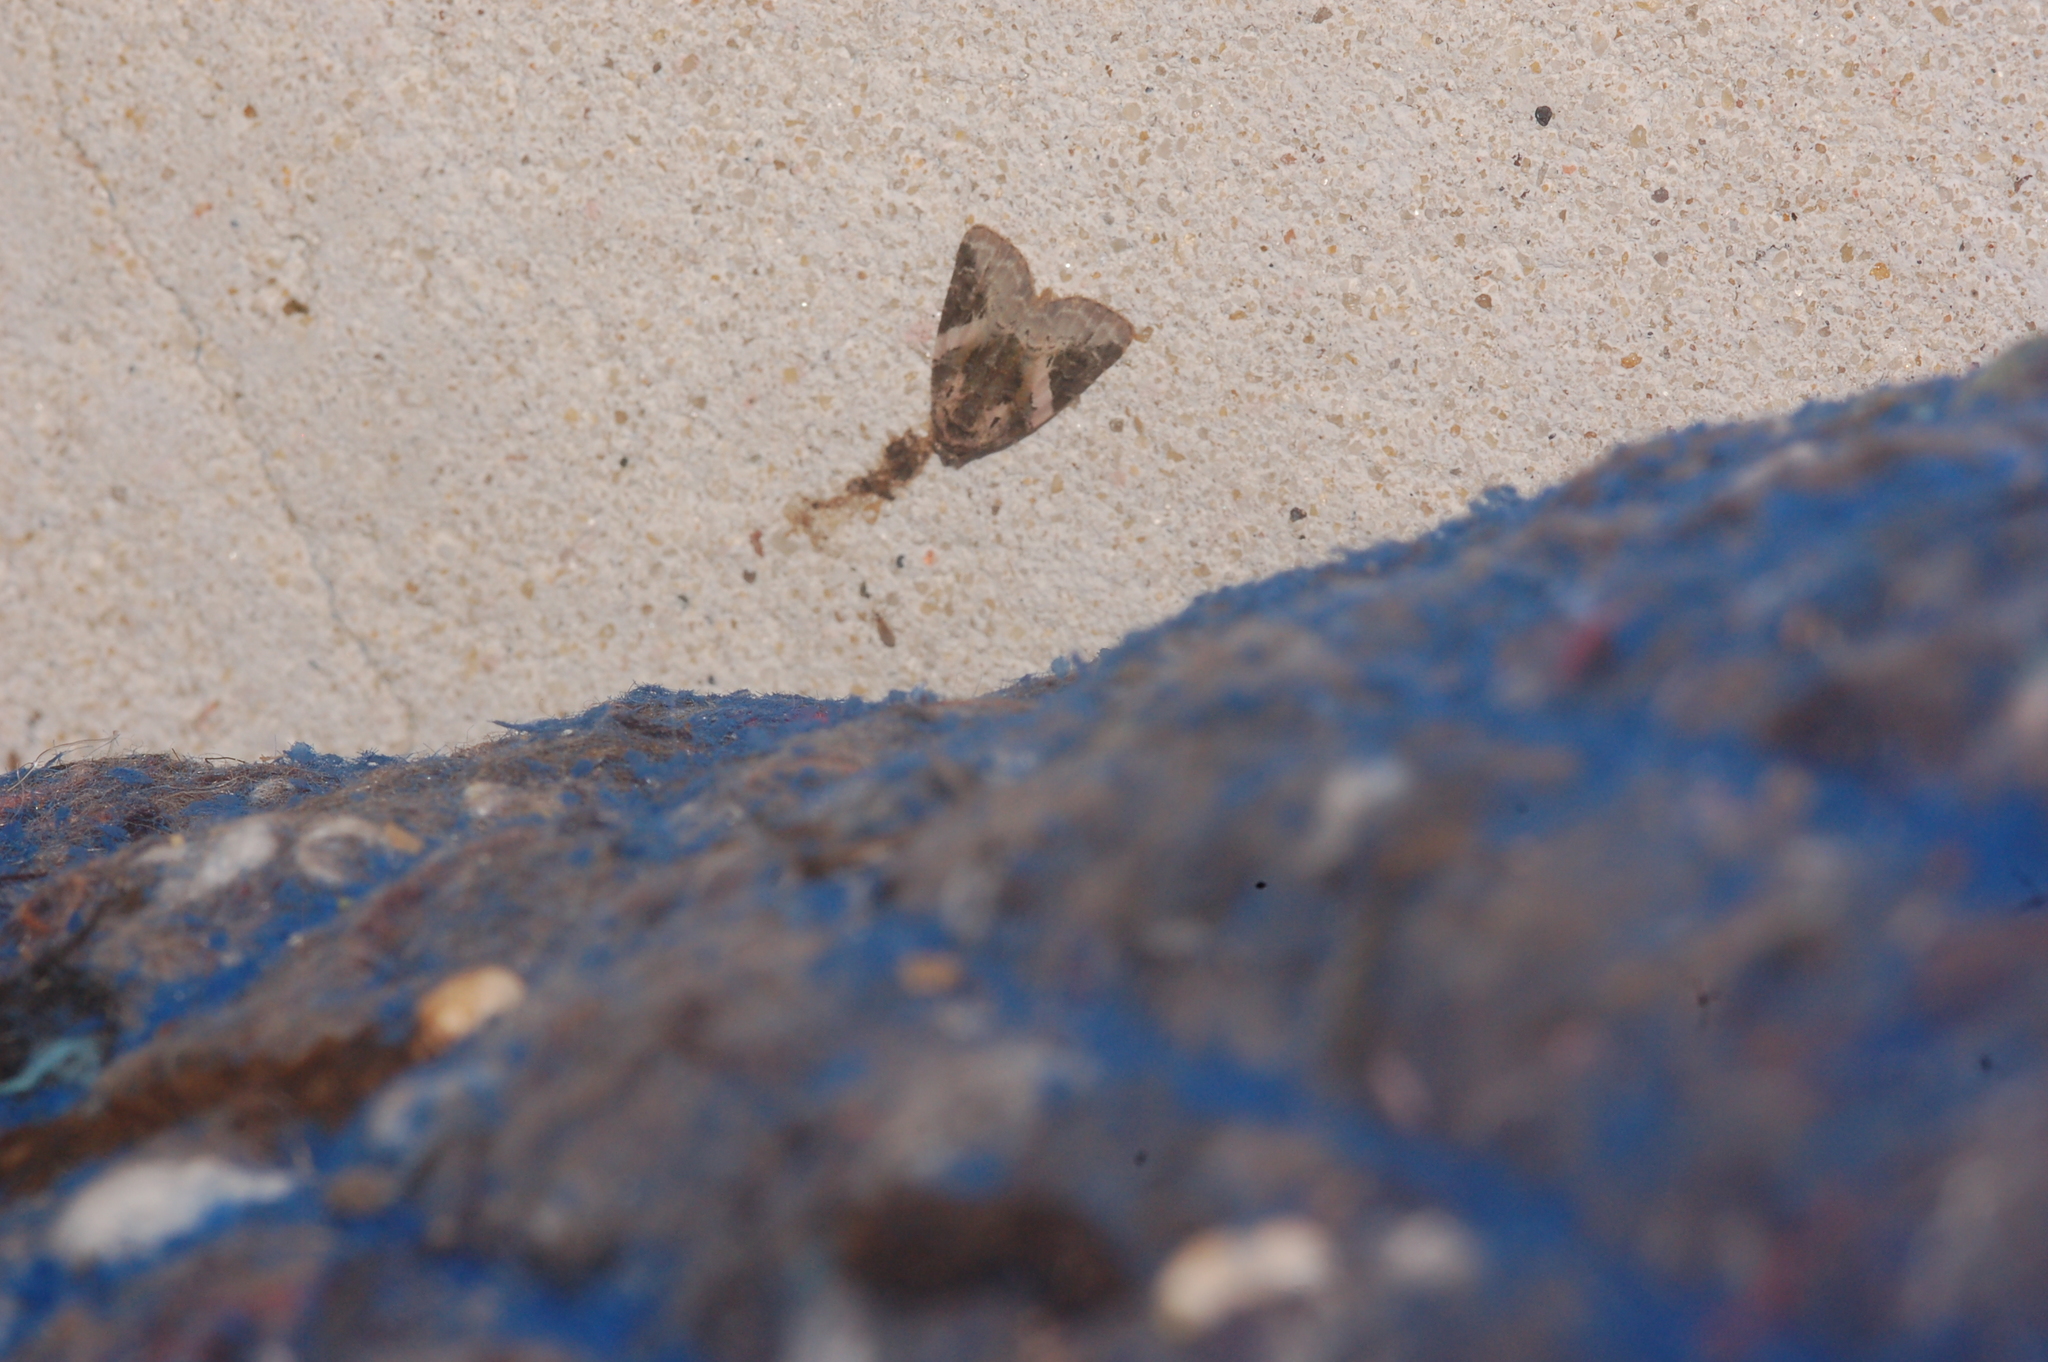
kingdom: Animalia
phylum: Arthropoda
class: Insecta
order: Lepidoptera
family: Noctuidae
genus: Pseudeustrotia
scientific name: Pseudeustrotia carneola
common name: Pink-barred lithacodia moth
